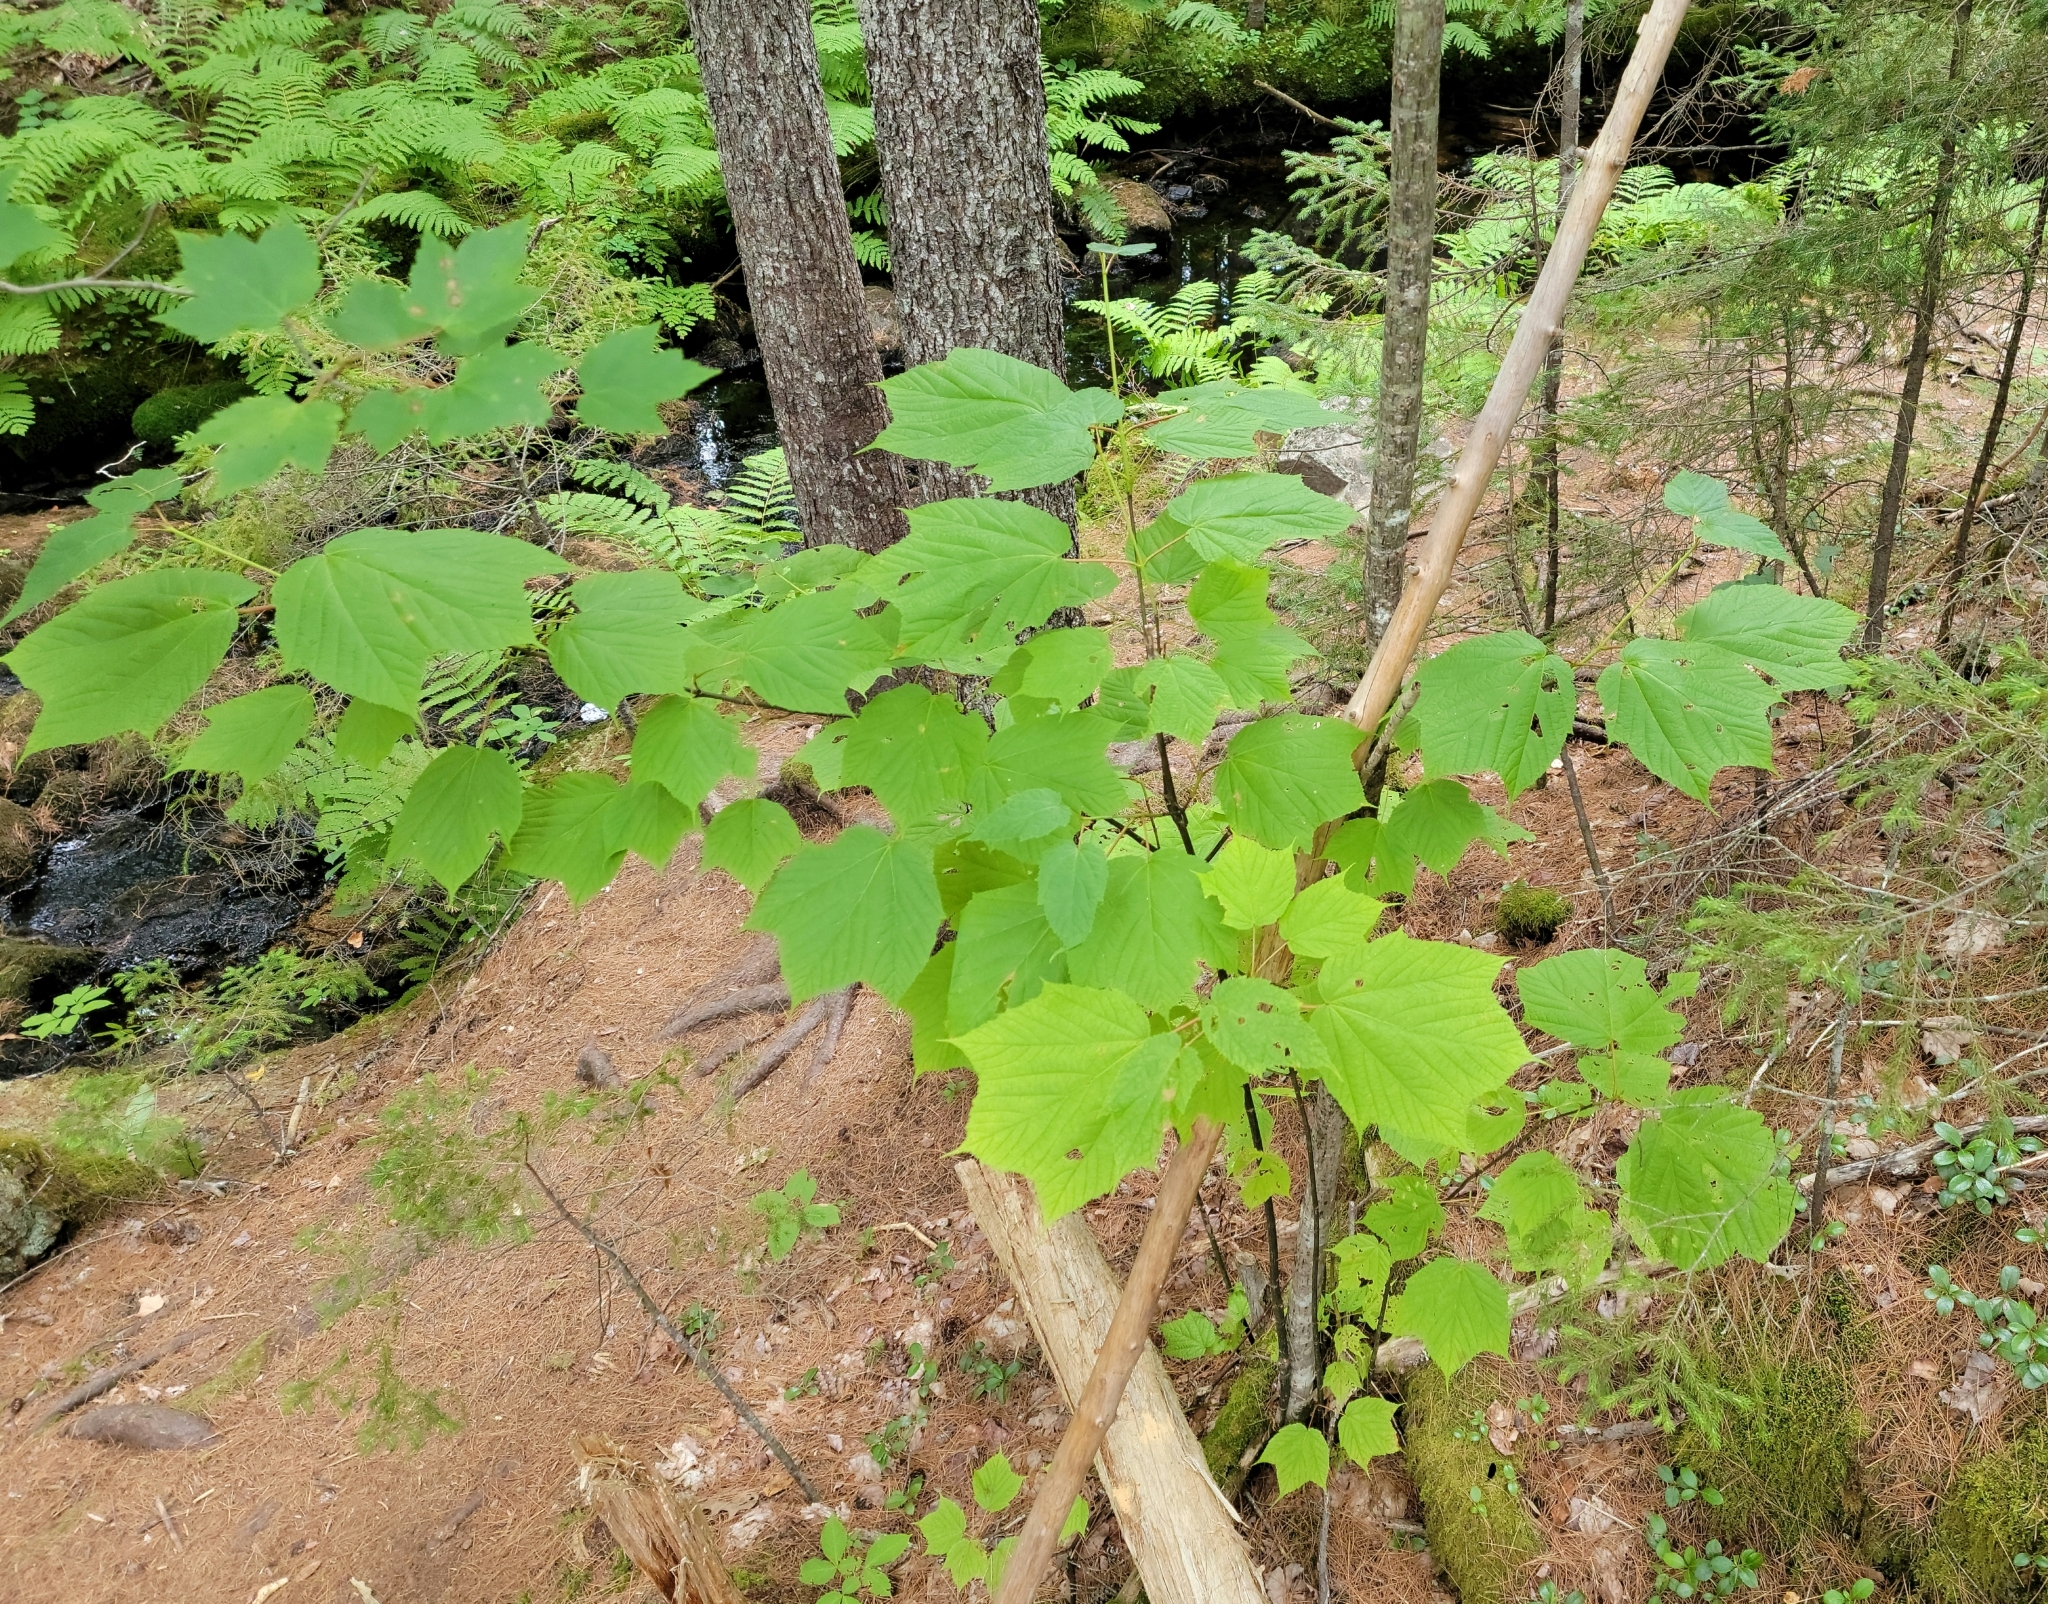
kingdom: Plantae
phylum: Tracheophyta
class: Magnoliopsida
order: Sapindales
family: Sapindaceae
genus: Acer
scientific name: Acer pensylvanicum
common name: Moosewood
